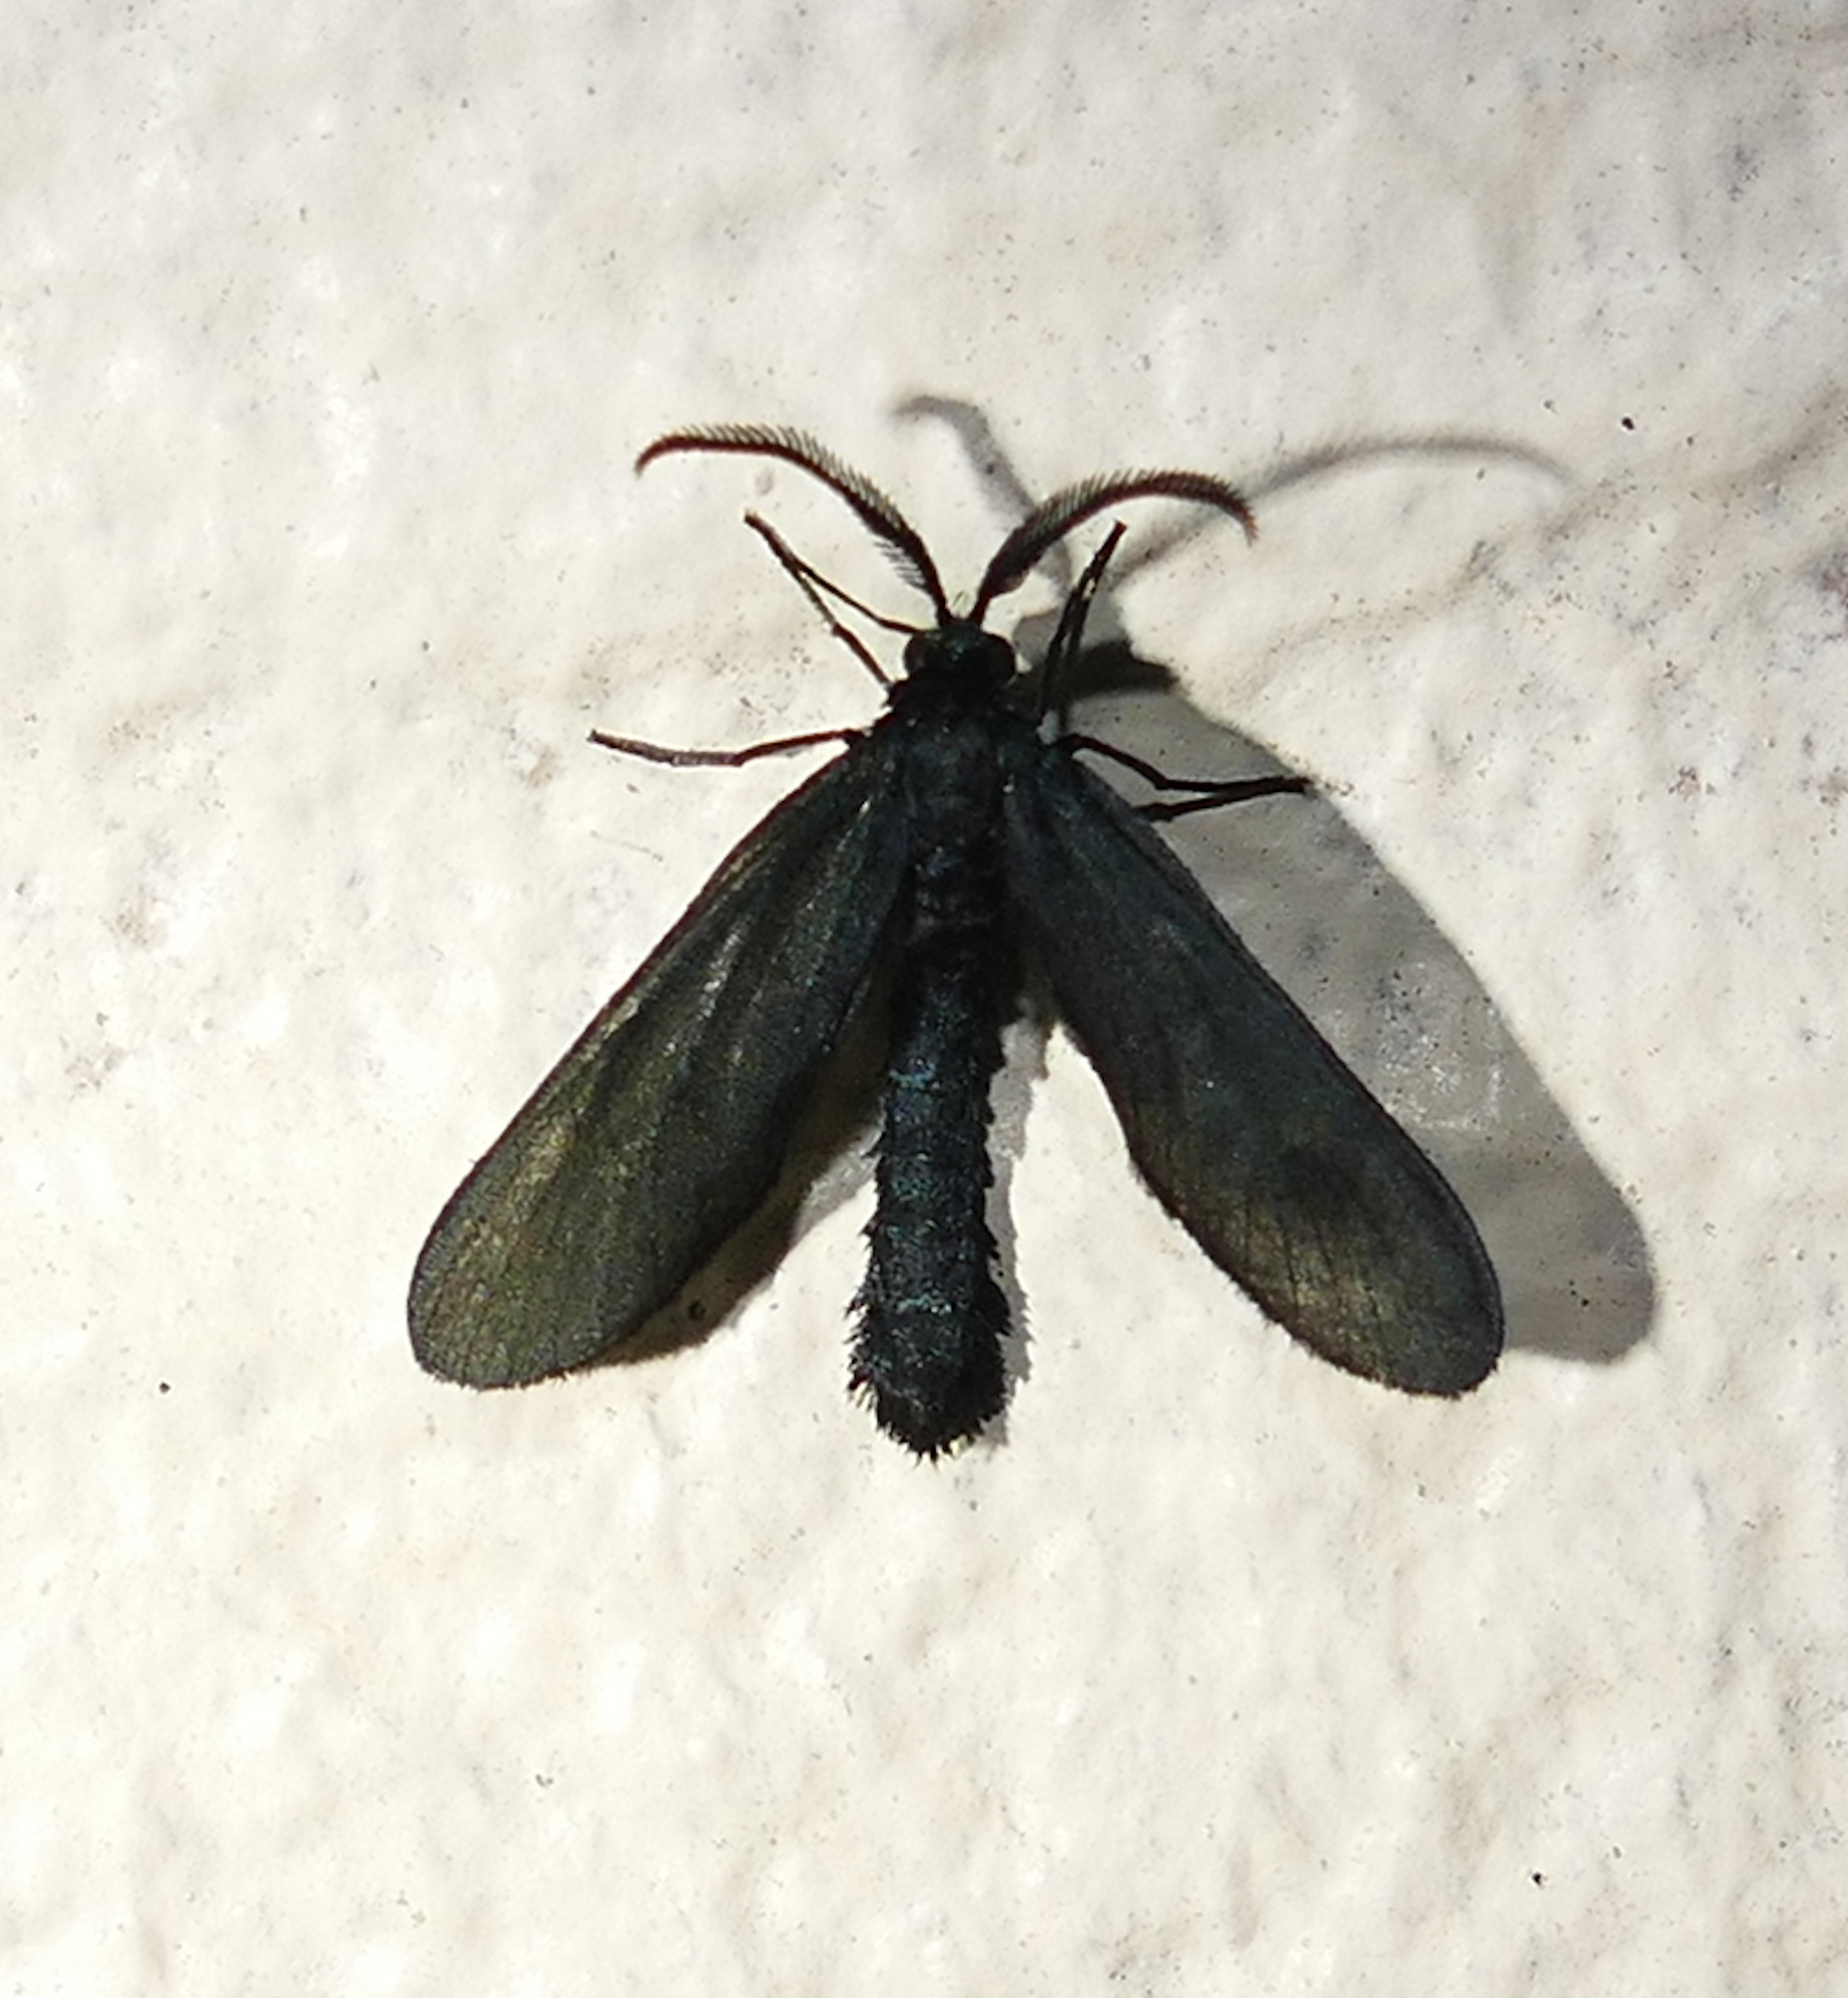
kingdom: Animalia
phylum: Arthropoda
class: Insecta
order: Lepidoptera
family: Zygaenidae
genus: Harrisina
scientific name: Harrisina coracina
